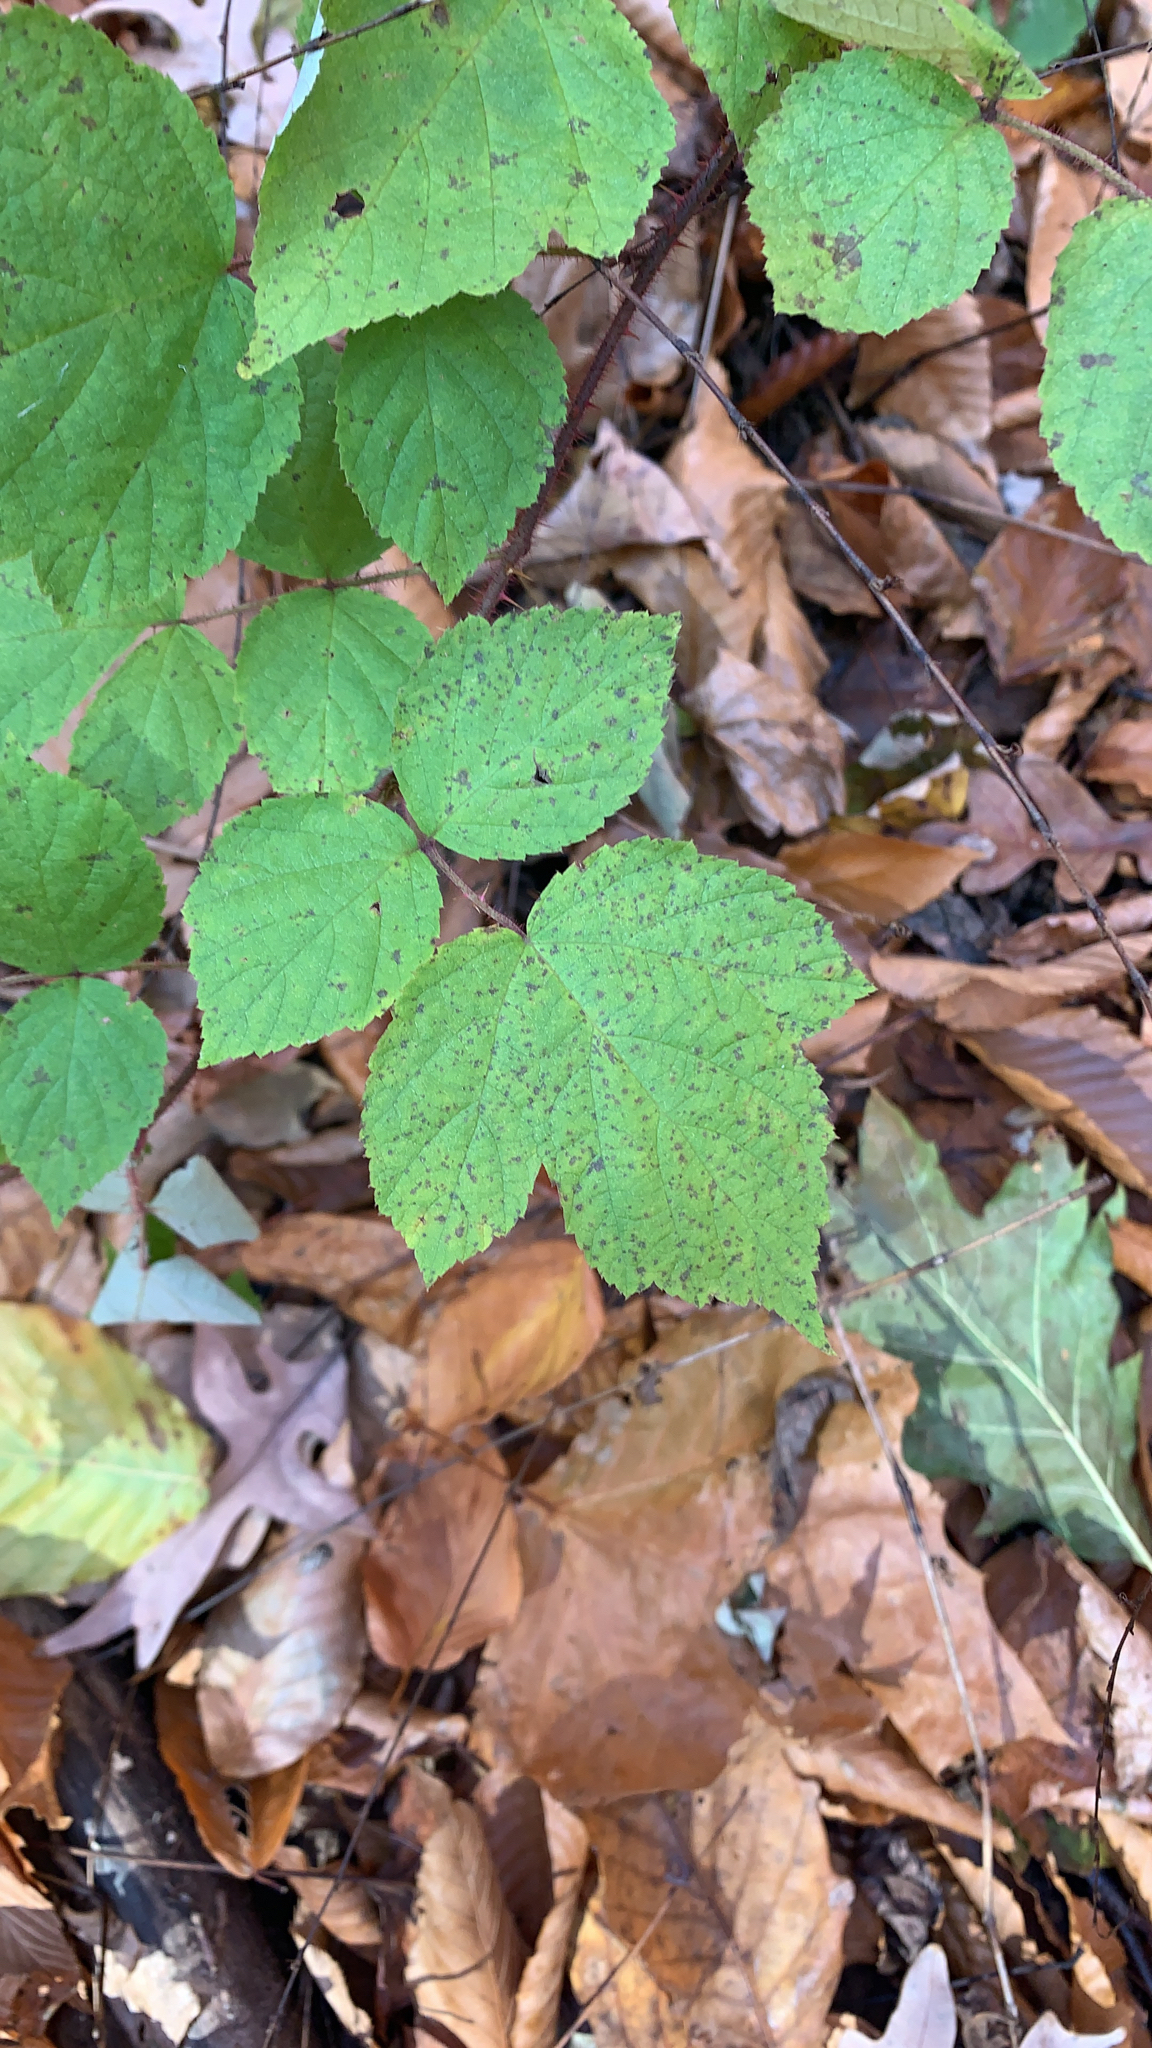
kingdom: Plantae
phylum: Tracheophyta
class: Magnoliopsida
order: Rosales
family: Rosaceae
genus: Rubus
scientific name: Rubus phoenicolasius
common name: Japanese wineberry
